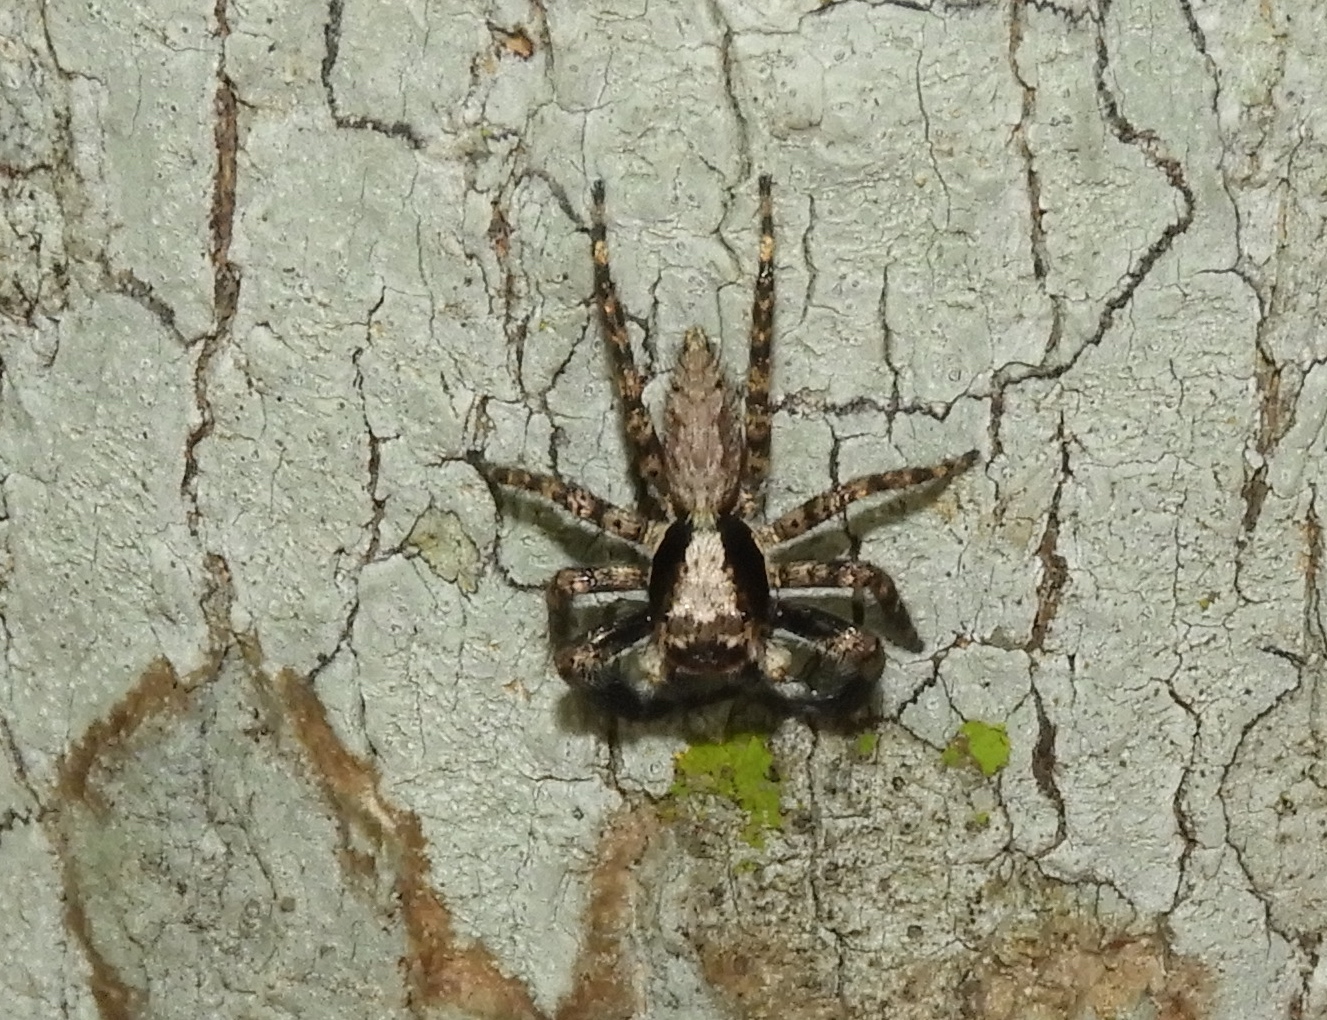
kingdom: Animalia
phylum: Arthropoda
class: Arachnida
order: Araneae
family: Salticidae
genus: Balmaceda
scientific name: Balmaceda
